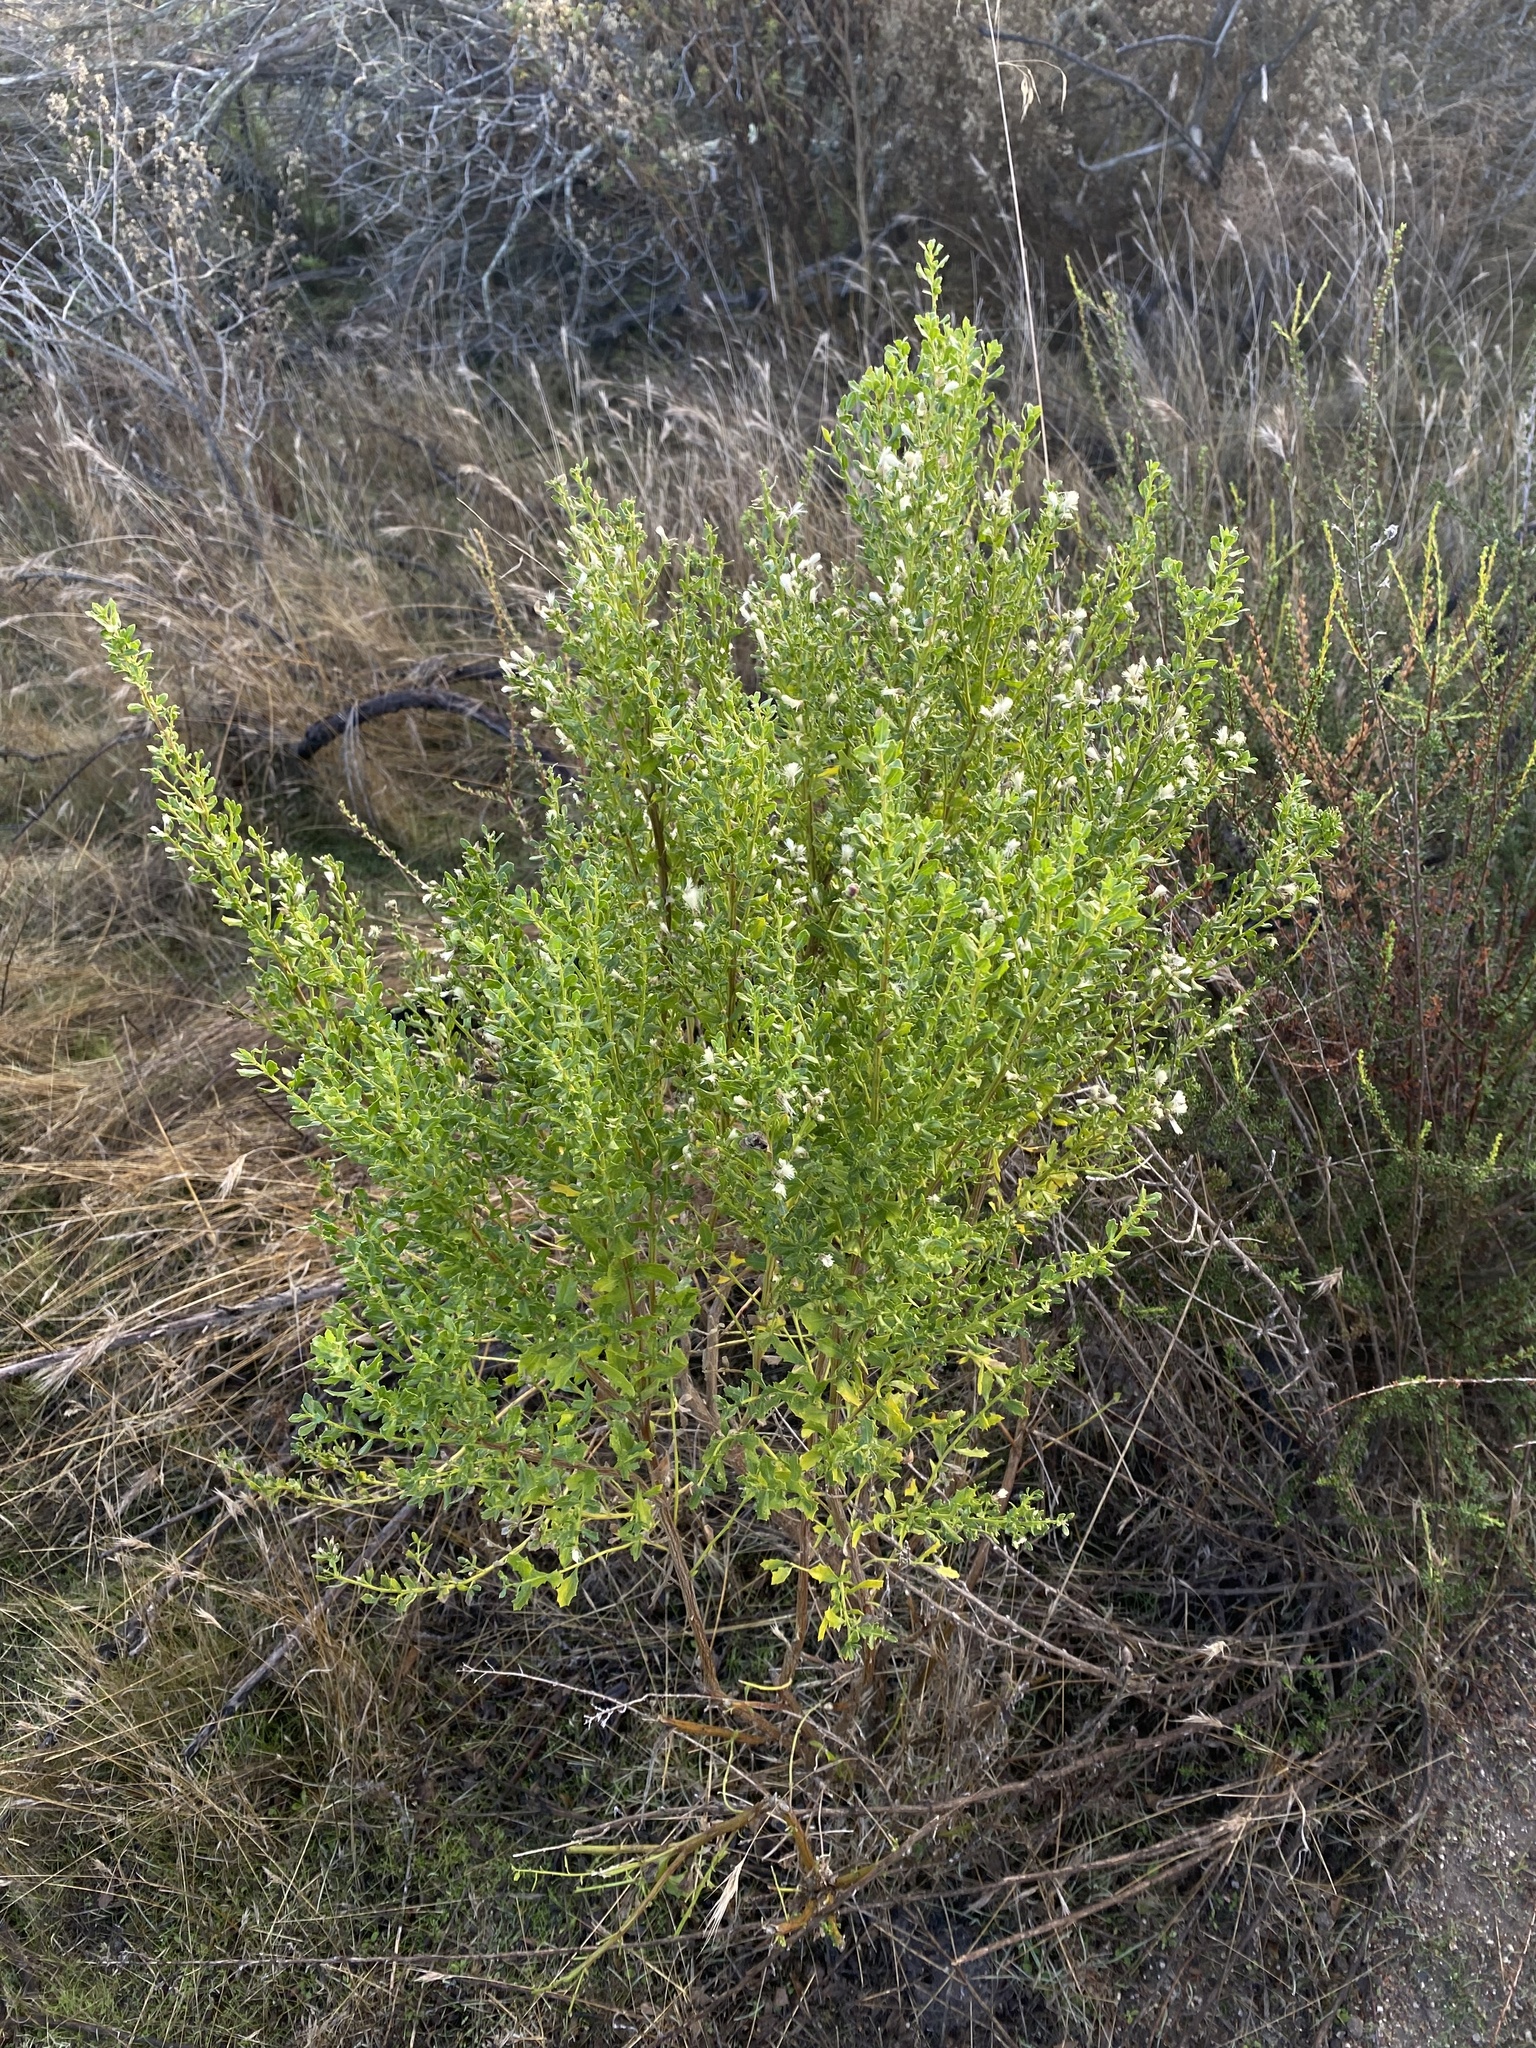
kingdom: Plantae
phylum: Tracheophyta
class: Magnoliopsida
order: Asterales
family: Asteraceae
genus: Baccharis
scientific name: Baccharis pilularis
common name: Coyotebrush
